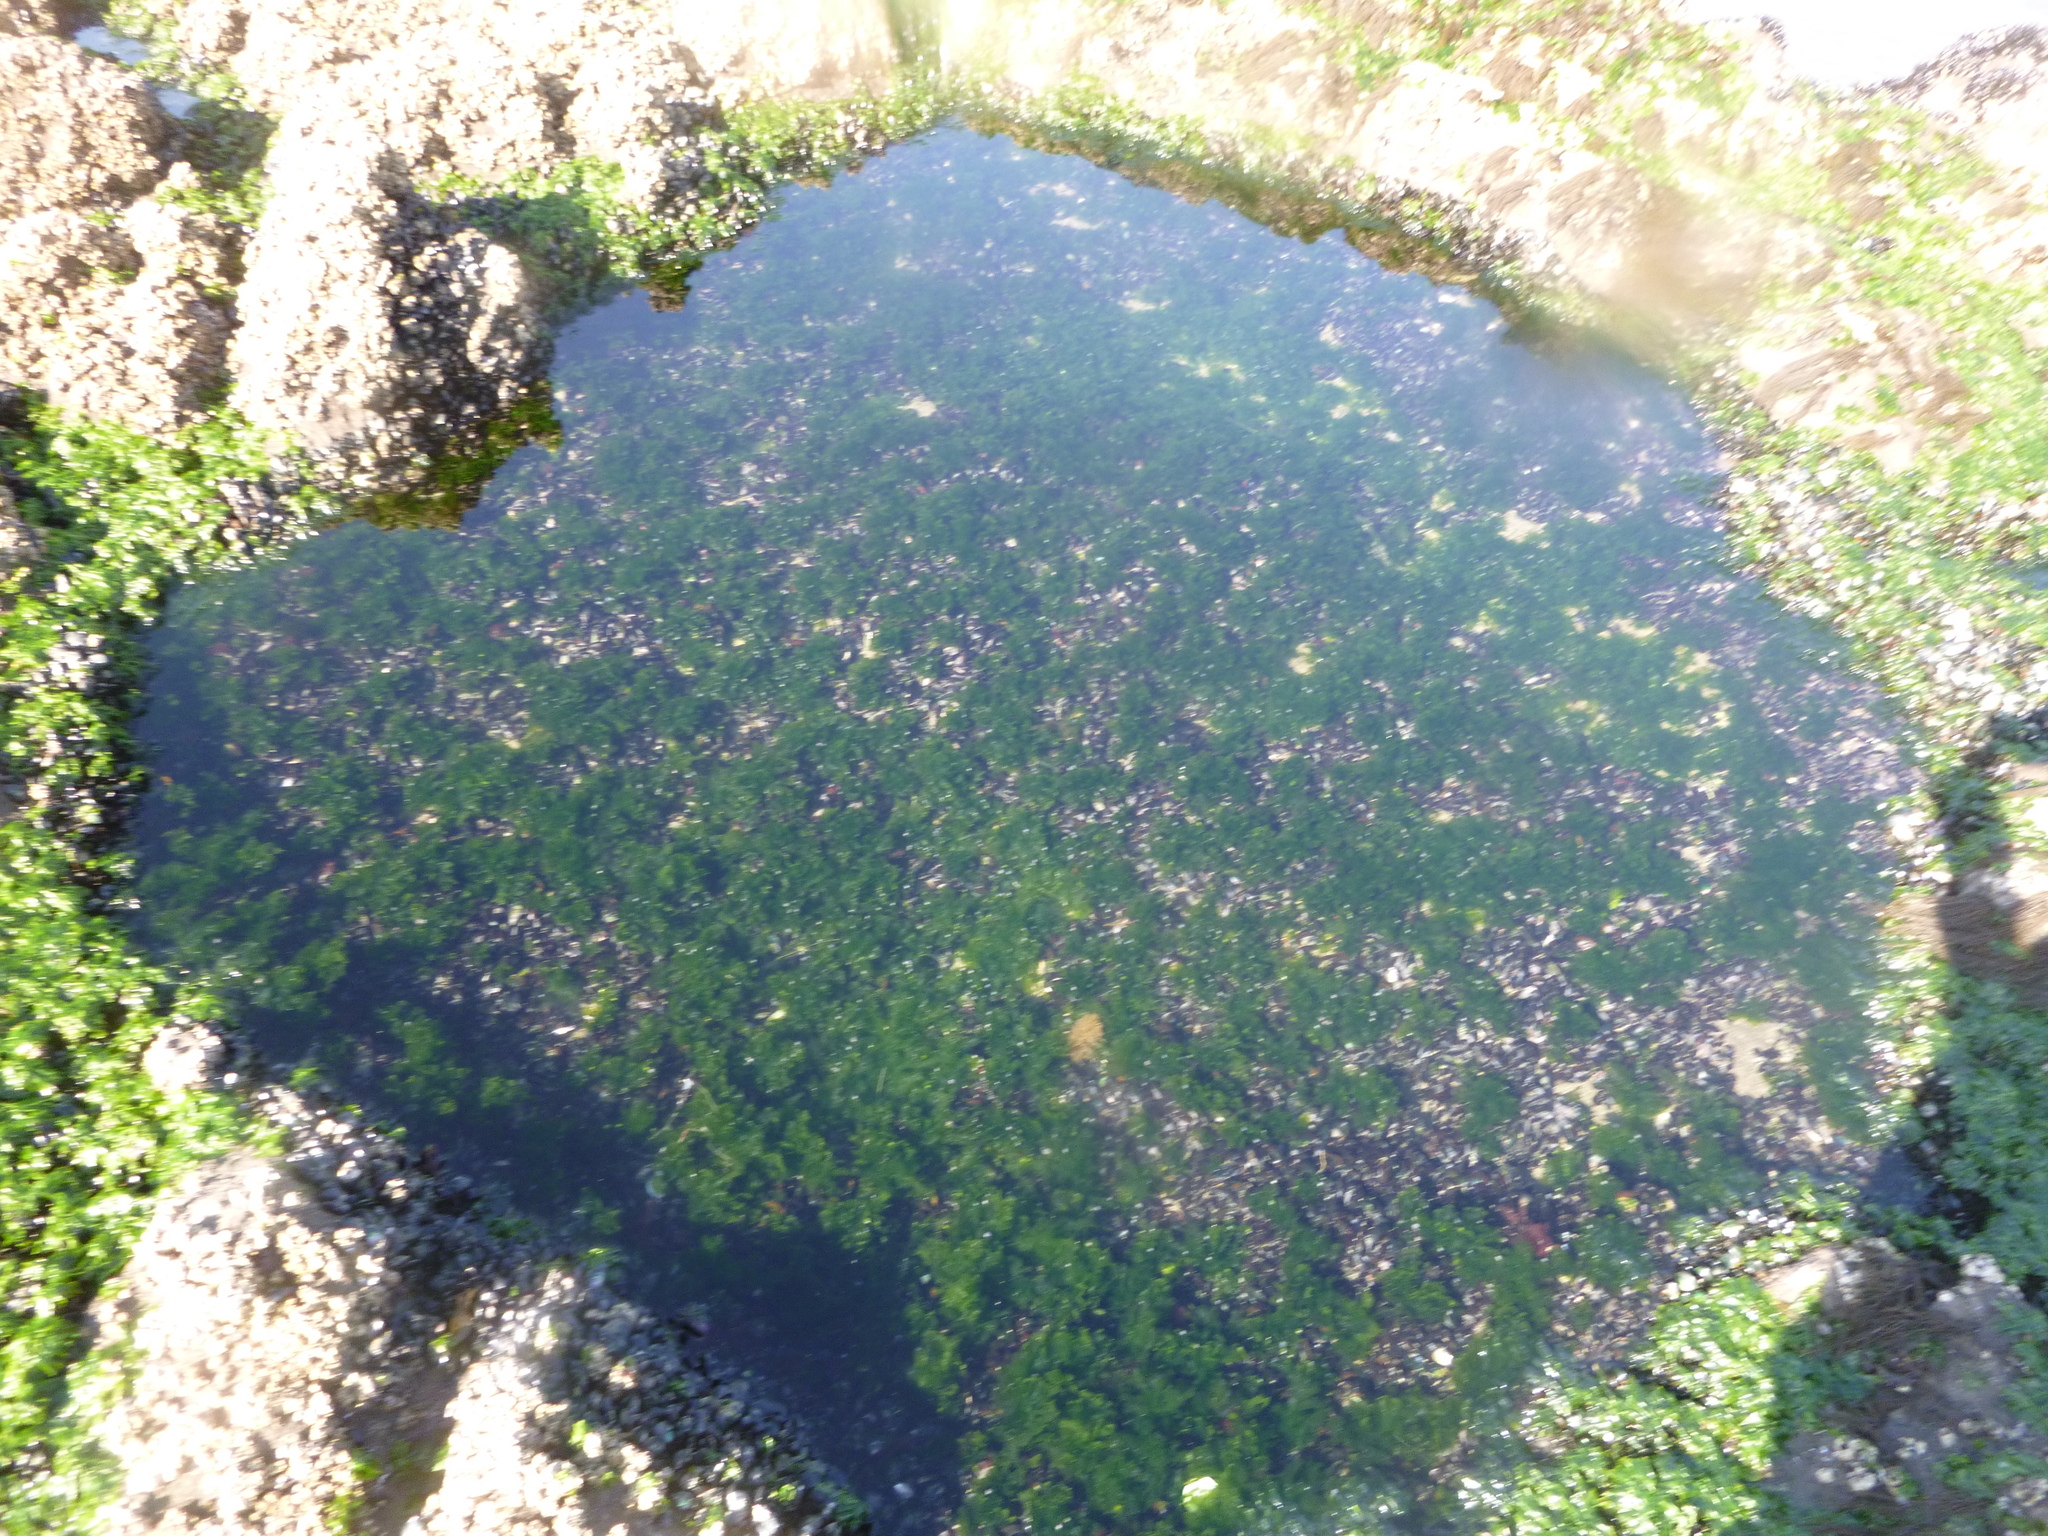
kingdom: Plantae
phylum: Chlorophyta
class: Ulvophyceae
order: Ulvales
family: Ulvaceae
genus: Ulva
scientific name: Ulva
